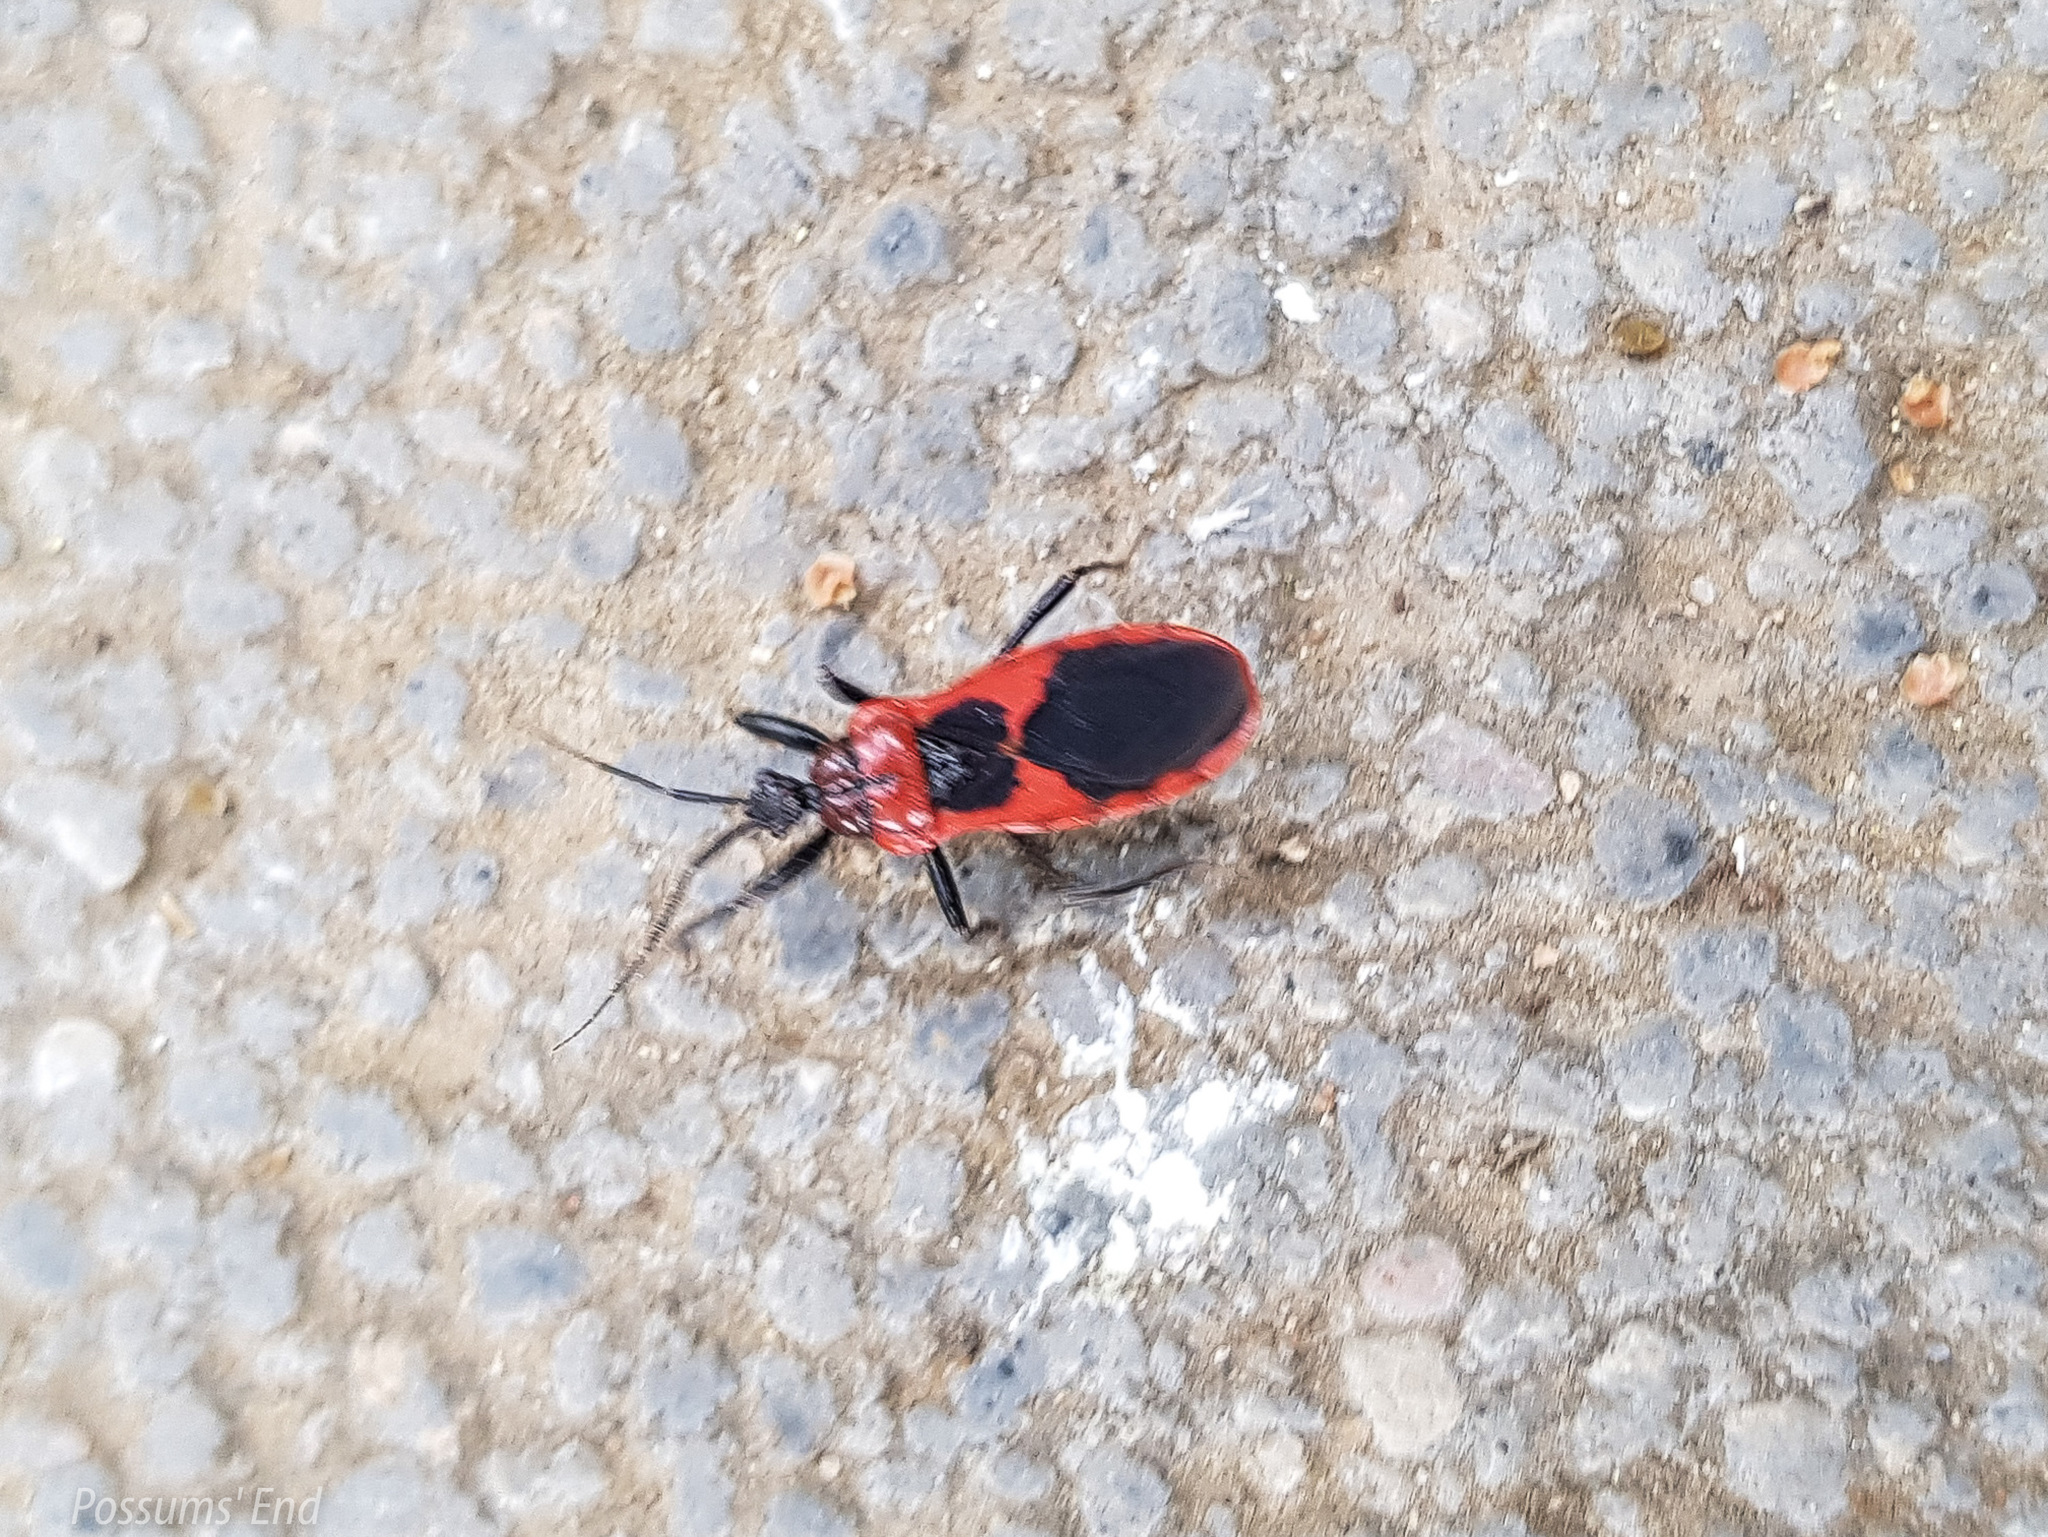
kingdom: Animalia
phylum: Arthropoda
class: Insecta
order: Hemiptera
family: Reduviidae
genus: Haematoloecha
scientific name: Haematoloecha nigrorufa
